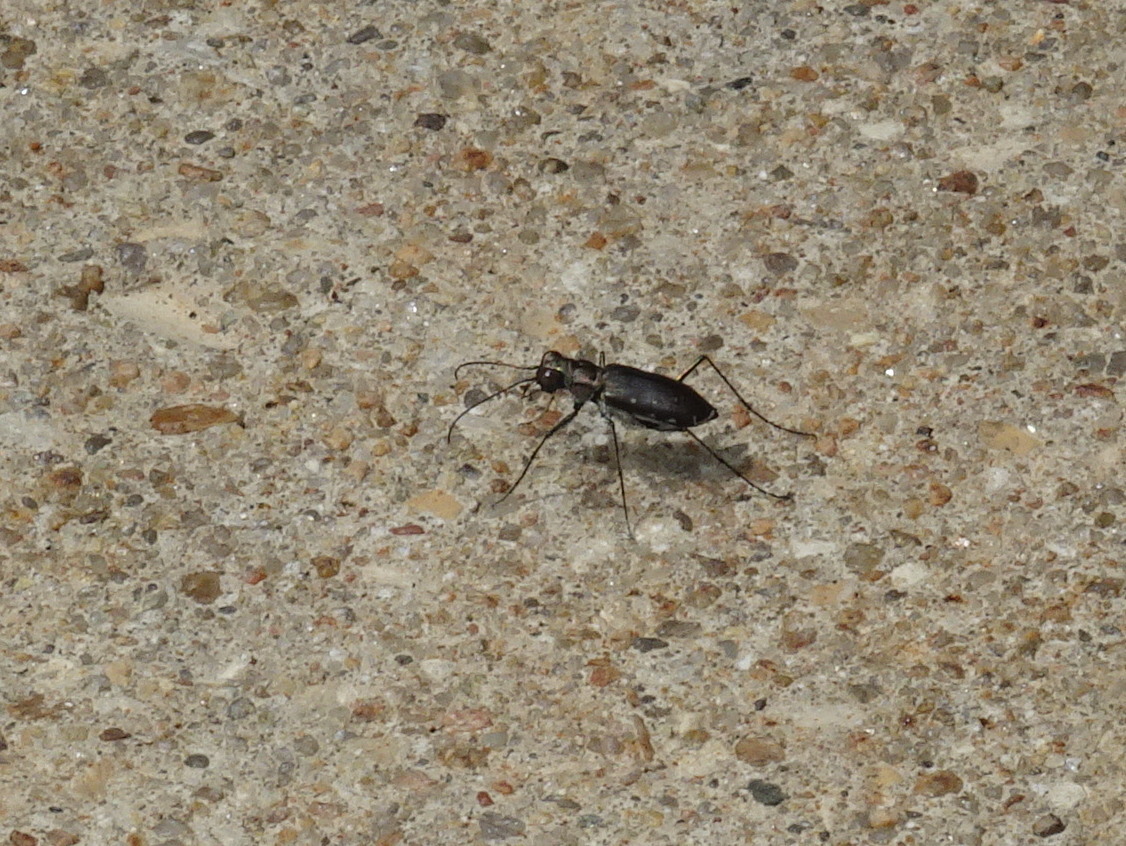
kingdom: Animalia
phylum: Arthropoda
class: Insecta
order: Coleoptera
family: Carabidae
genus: Cicindela
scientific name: Cicindela punctulata
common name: Punctured tiger beetle
